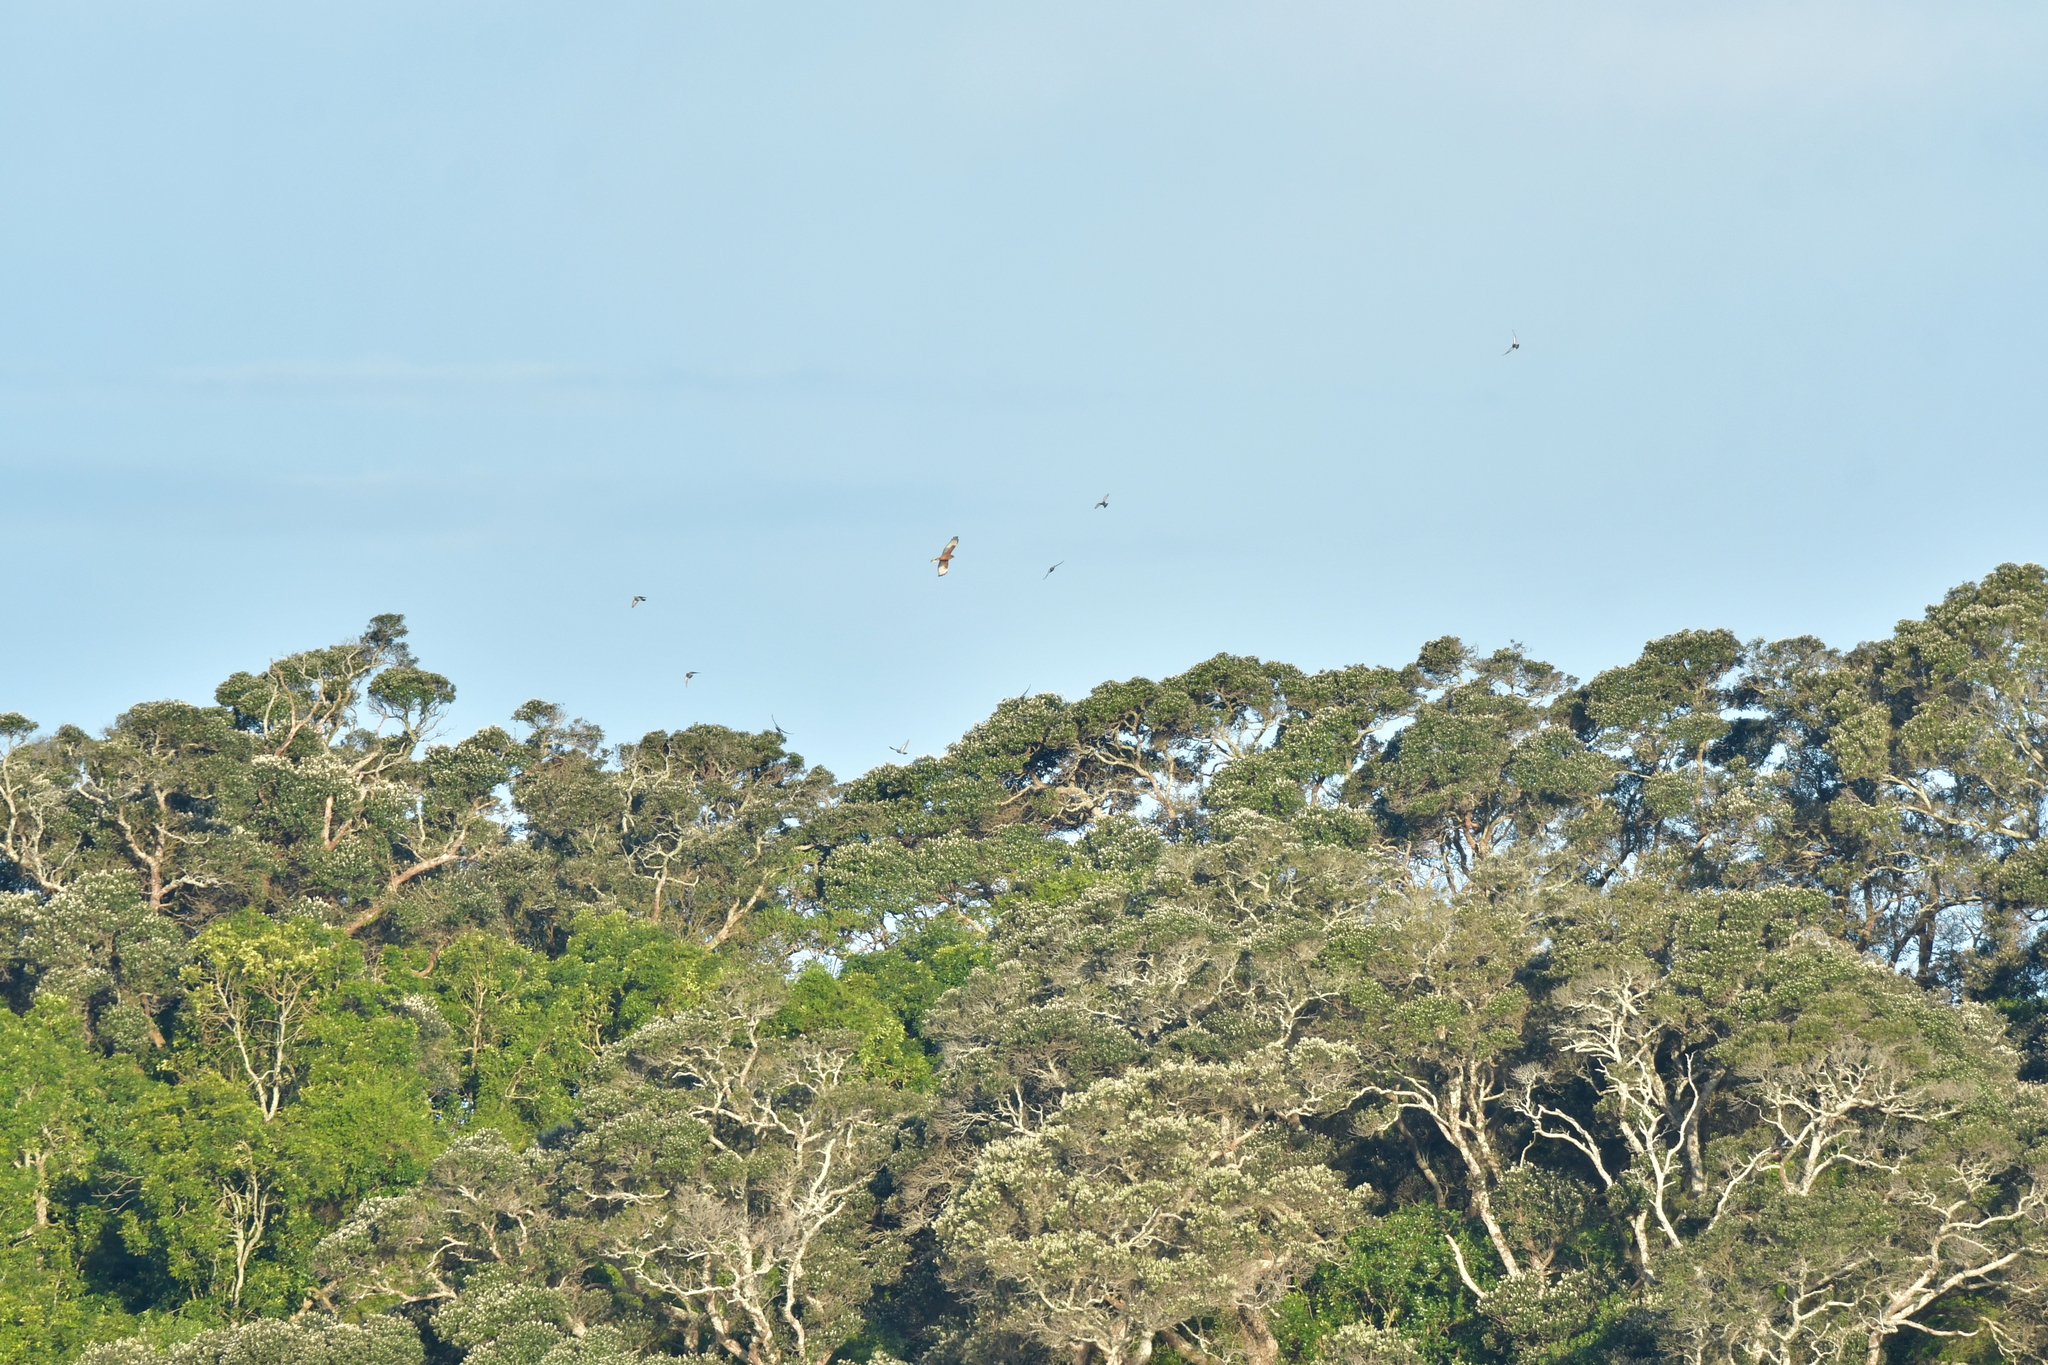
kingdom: Animalia
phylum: Chordata
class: Aves
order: Accipitriformes
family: Accipitridae
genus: Circus
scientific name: Circus approximans
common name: Swamp harrier
